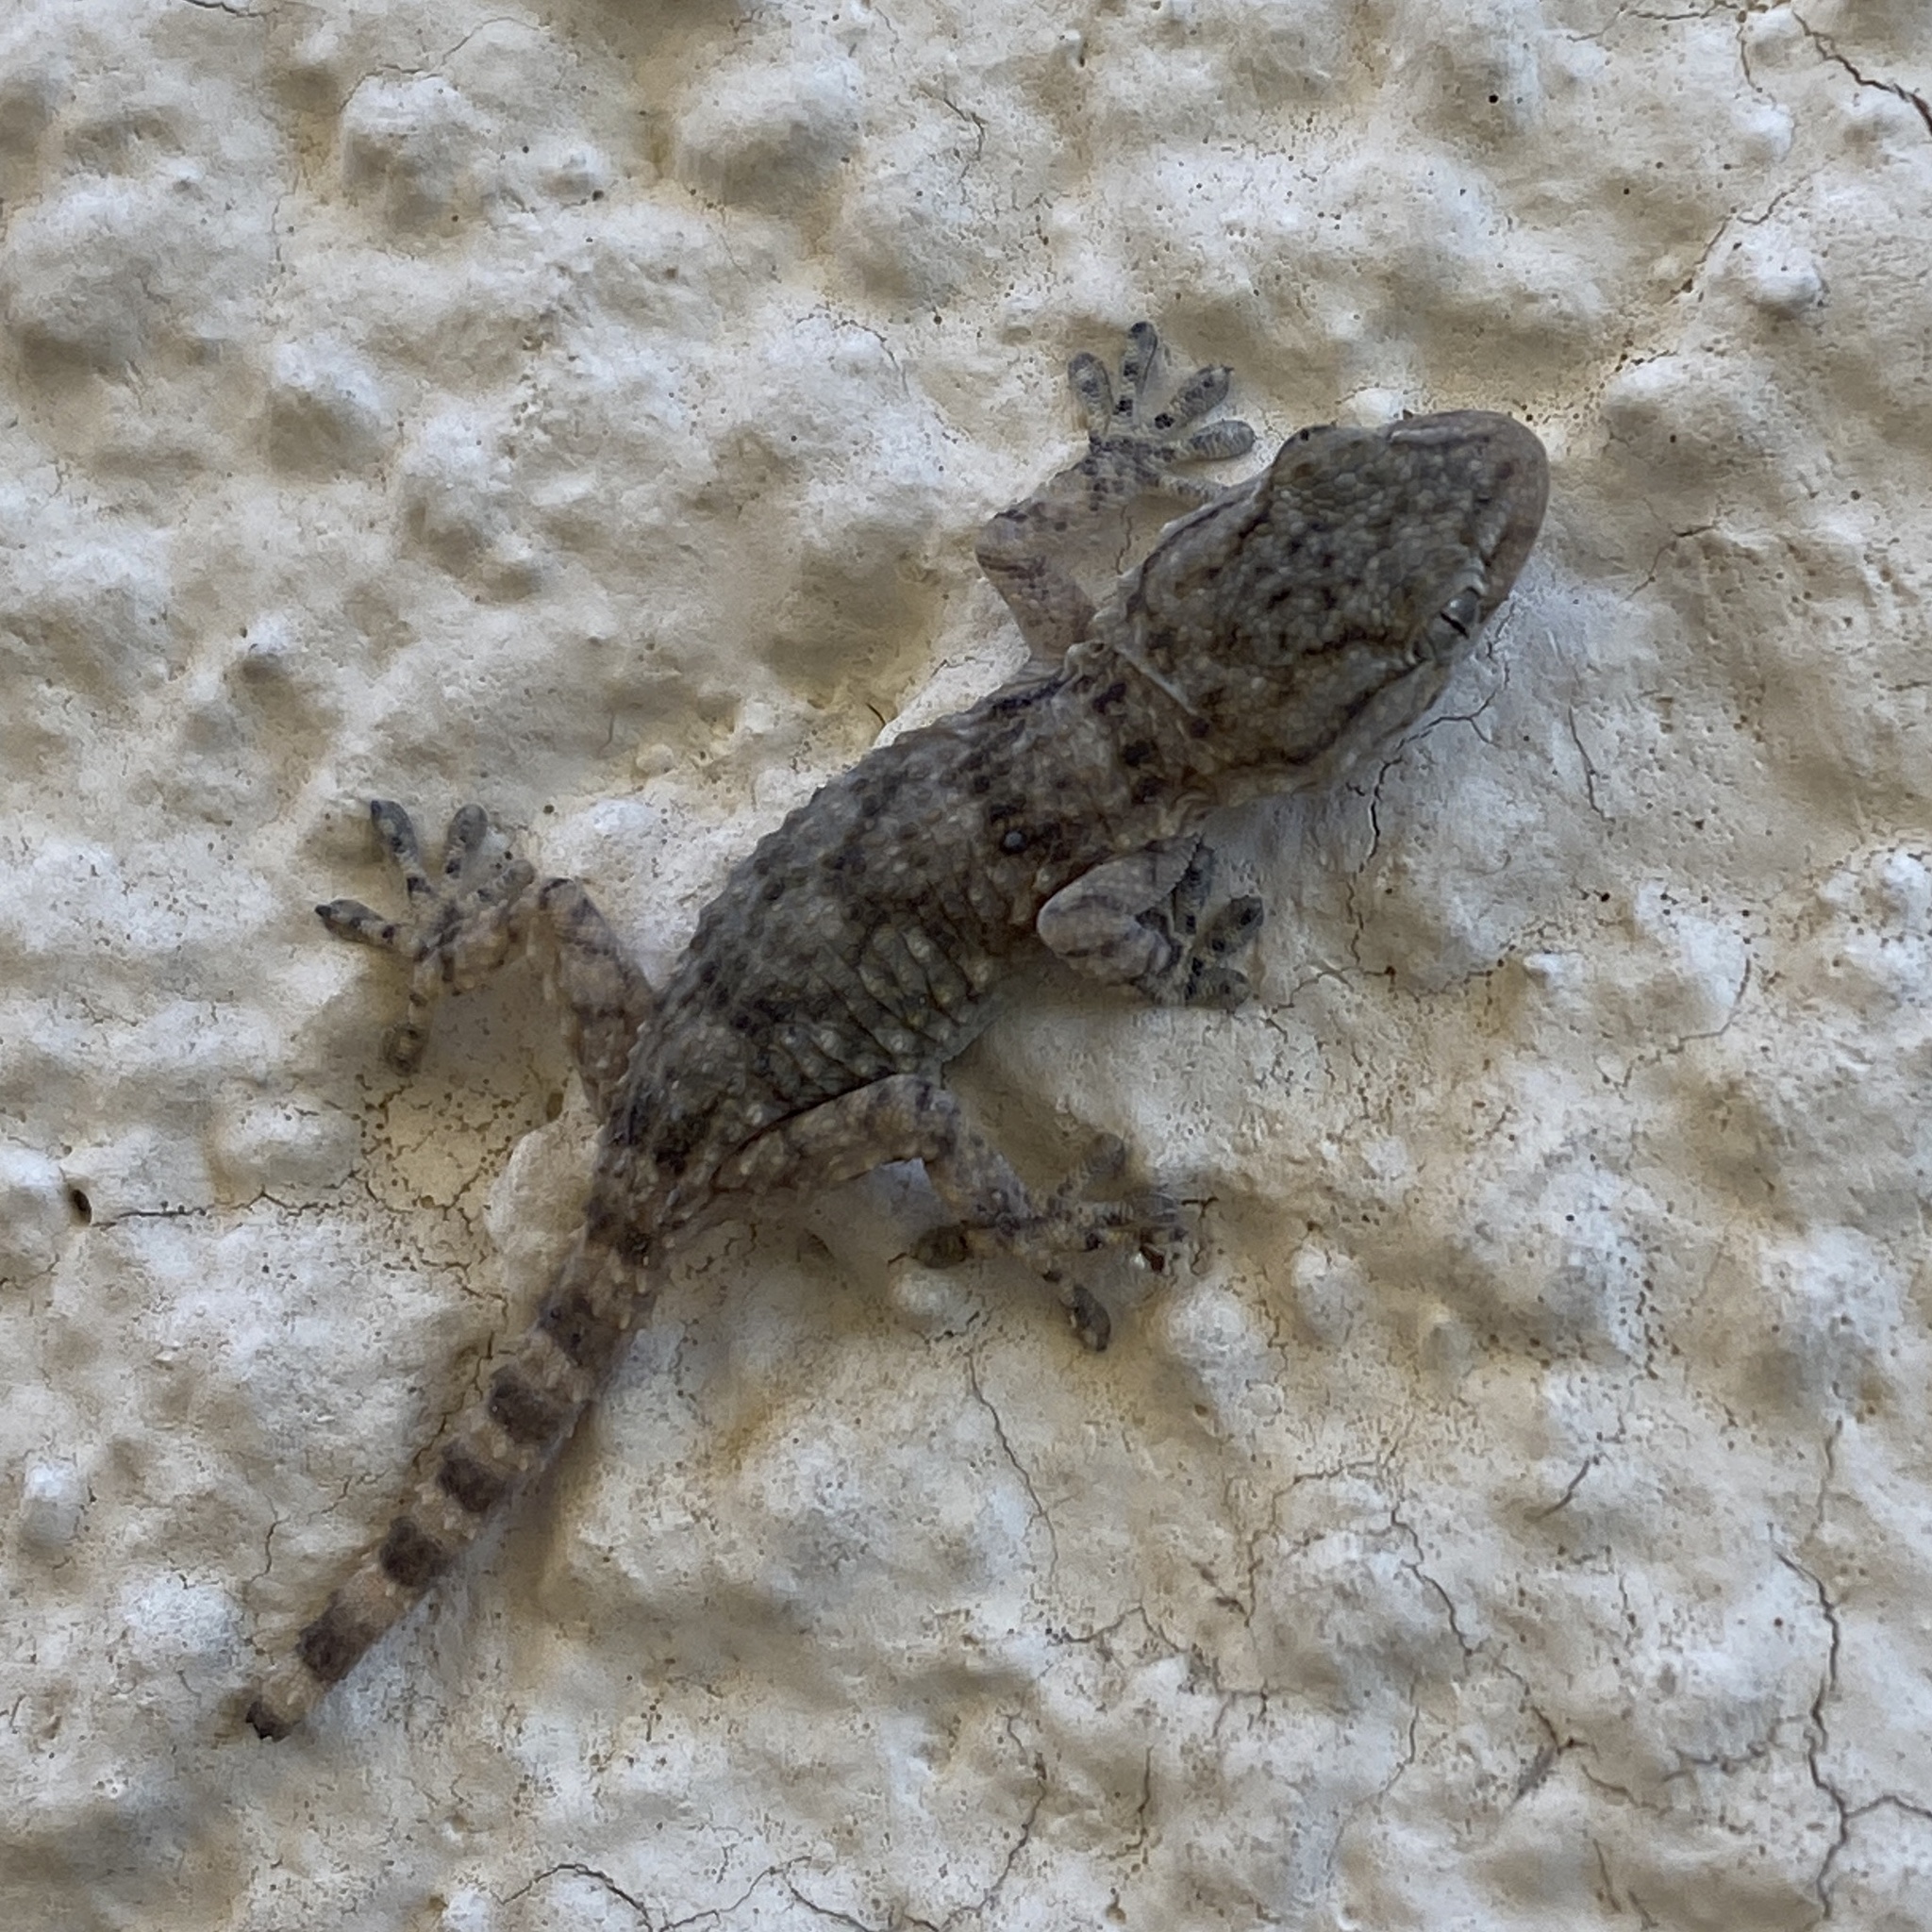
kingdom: Animalia
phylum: Chordata
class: Squamata
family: Phyllodactylidae
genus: Tarentola
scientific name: Tarentola mauritanica
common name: Moorish gecko
